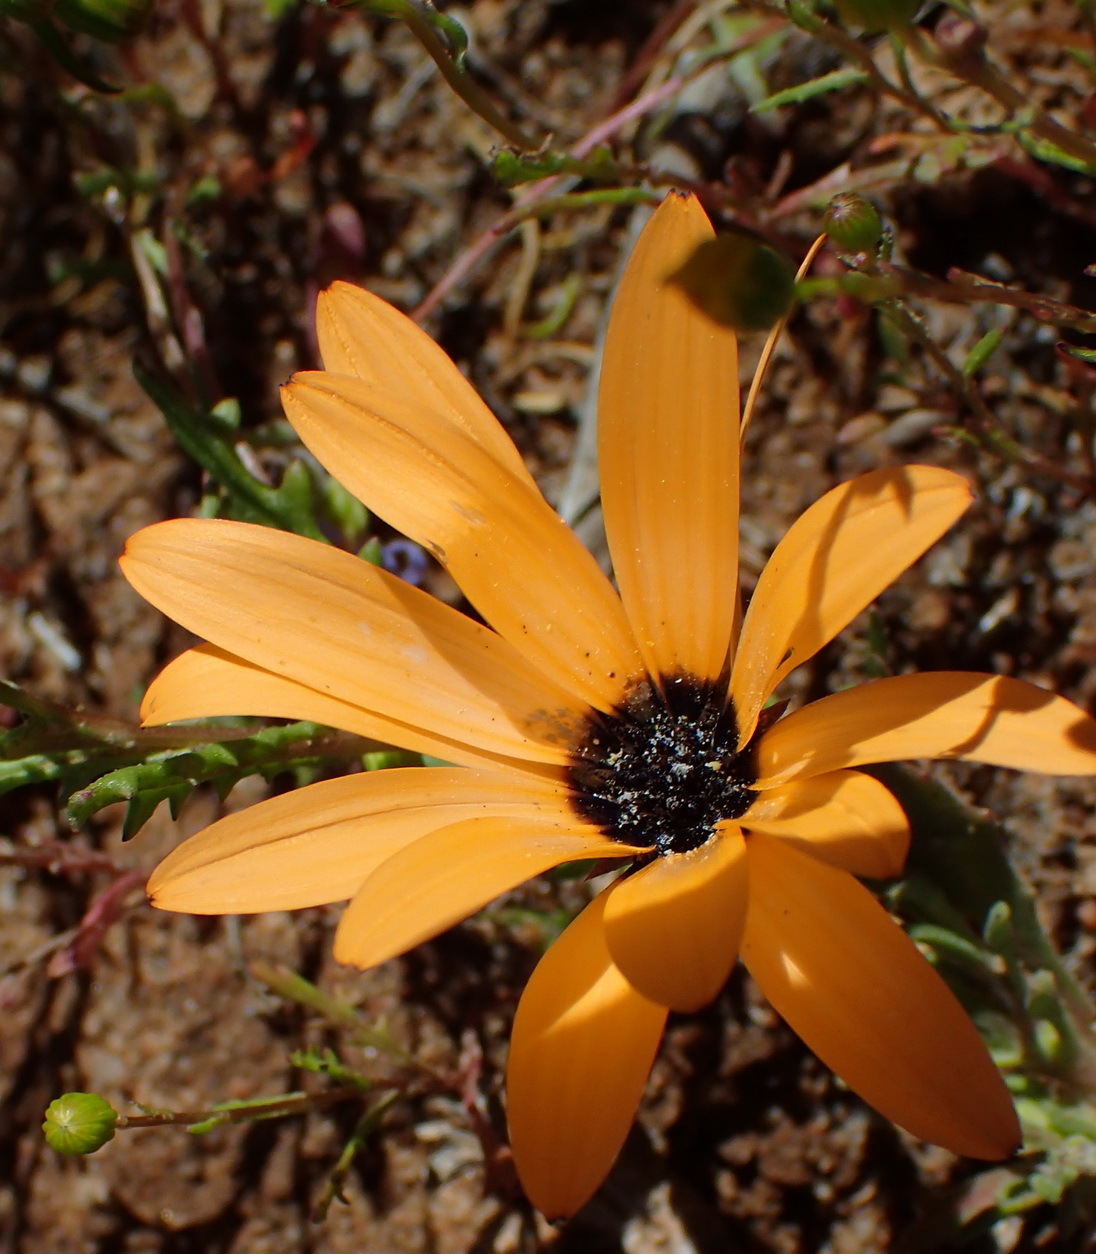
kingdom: Plantae
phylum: Tracheophyta
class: Magnoliopsida
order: Asterales
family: Asteraceae
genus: Dimorphotheca
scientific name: Dimorphotheca sinuata
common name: Glandular cape marigold
